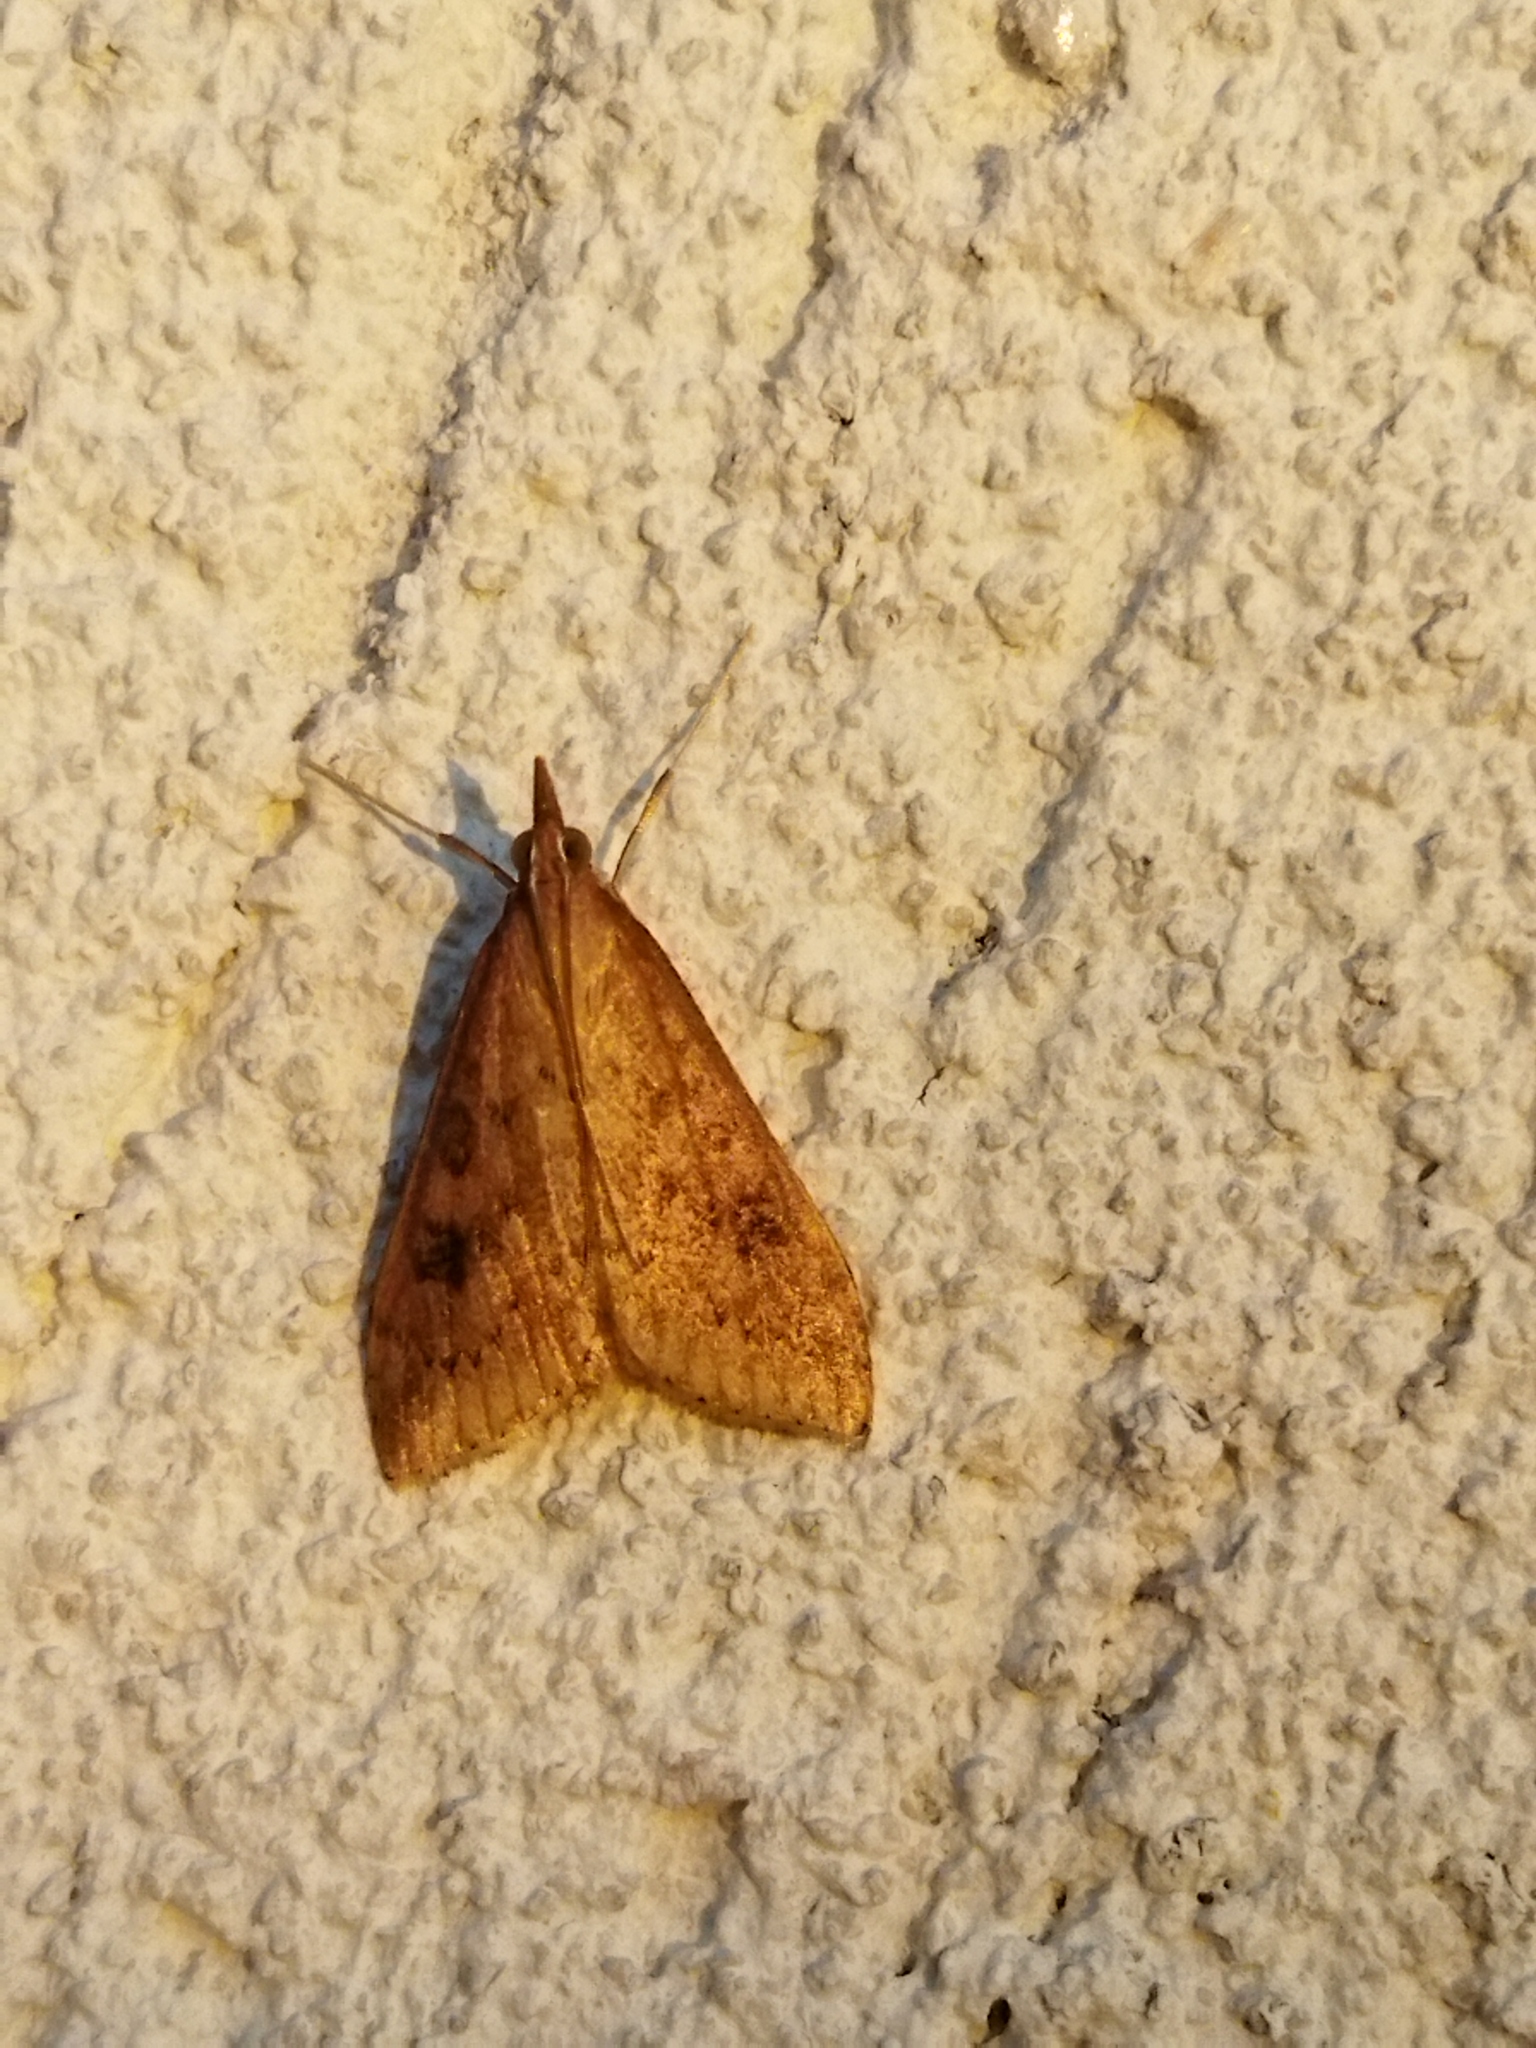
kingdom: Animalia
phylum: Arthropoda
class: Insecta
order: Lepidoptera
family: Crambidae
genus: Udea
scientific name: Udea ferrugalis
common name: Rusty dot
